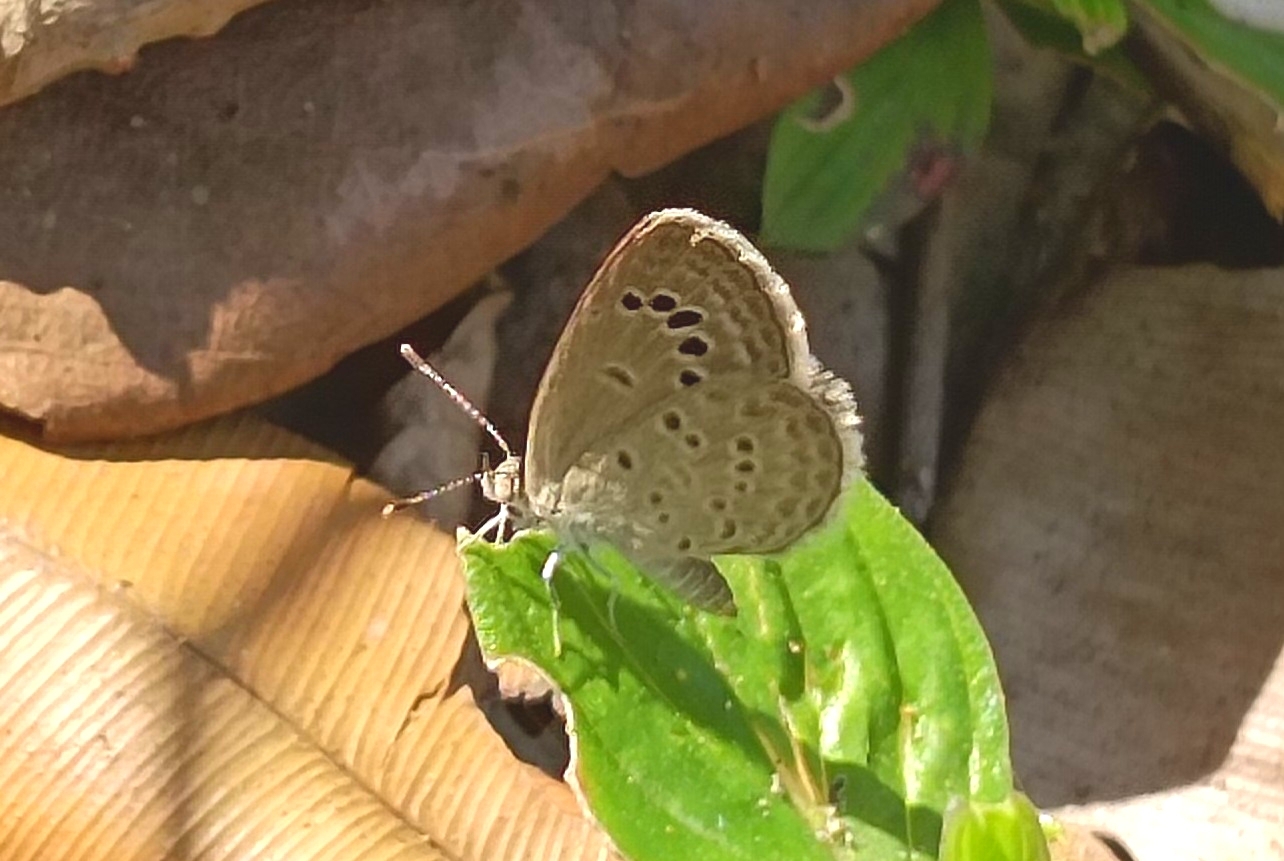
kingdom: Animalia
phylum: Arthropoda
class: Insecta
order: Lepidoptera
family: Lycaenidae
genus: Zizina
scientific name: Zizina otis
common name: Lesser grass blue
